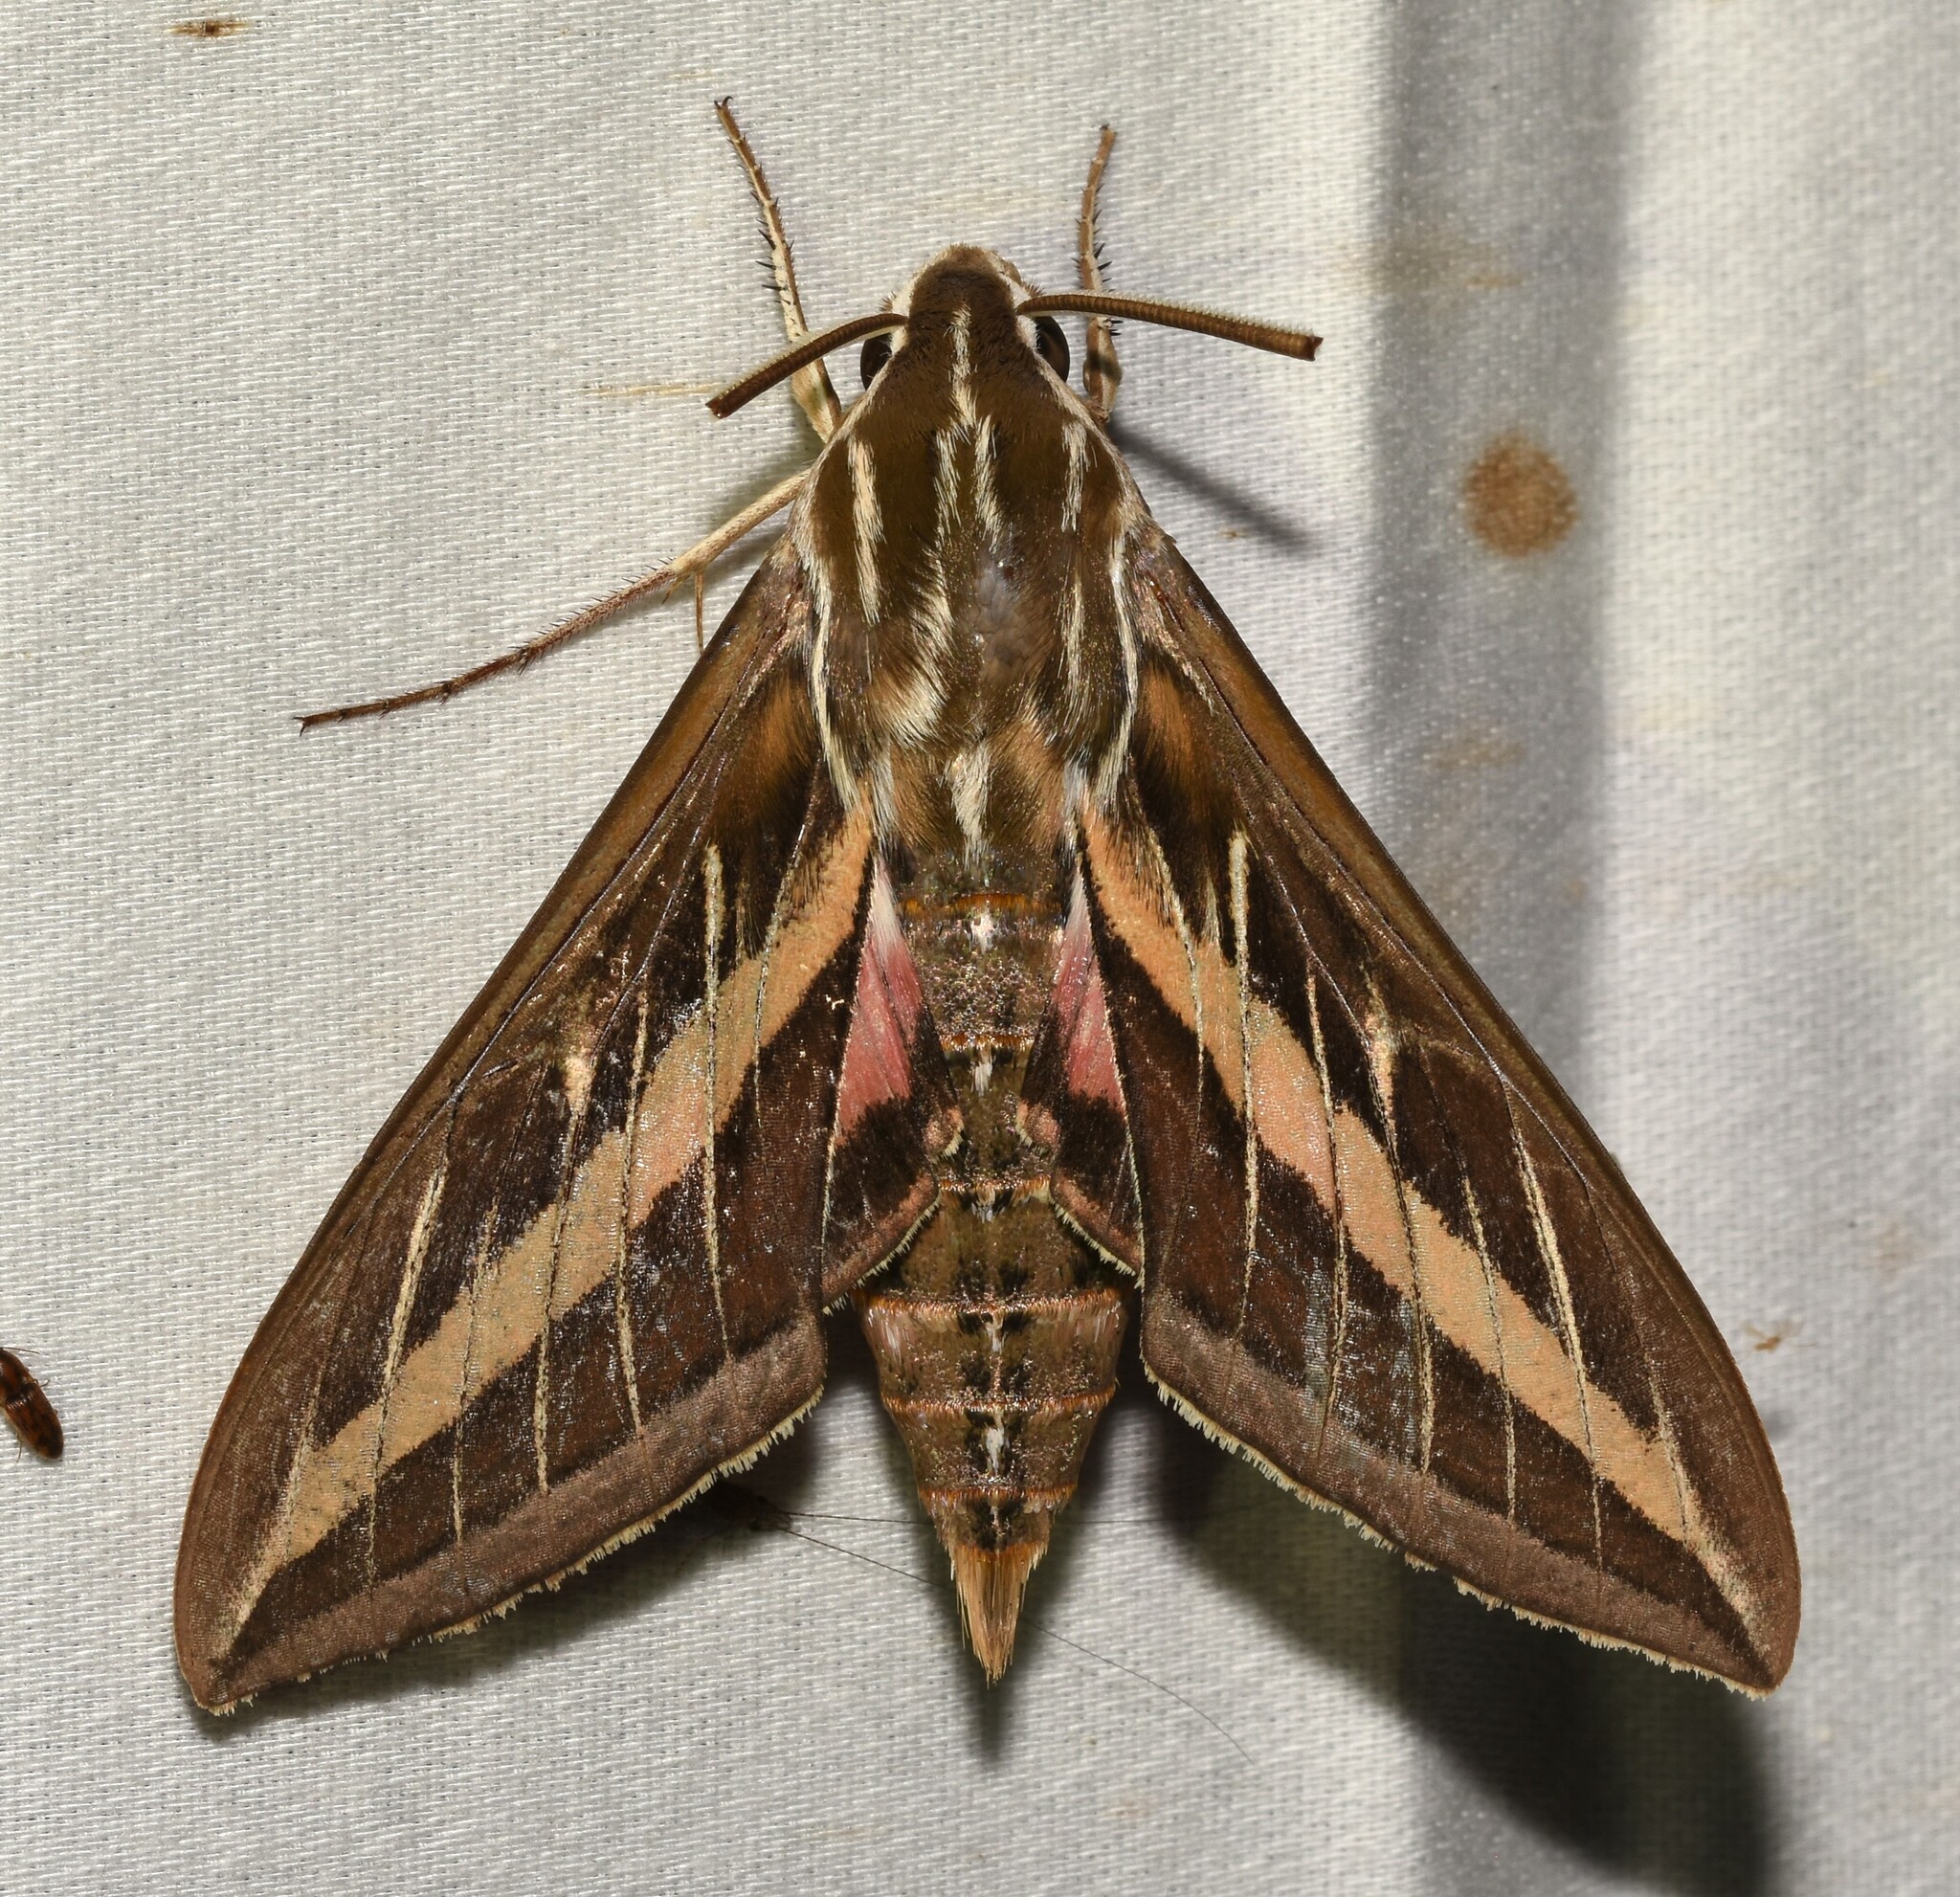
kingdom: Animalia
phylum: Arthropoda
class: Insecta
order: Lepidoptera
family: Sphingidae
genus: Hyles
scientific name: Hyles lineata
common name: White-lined sphinx
